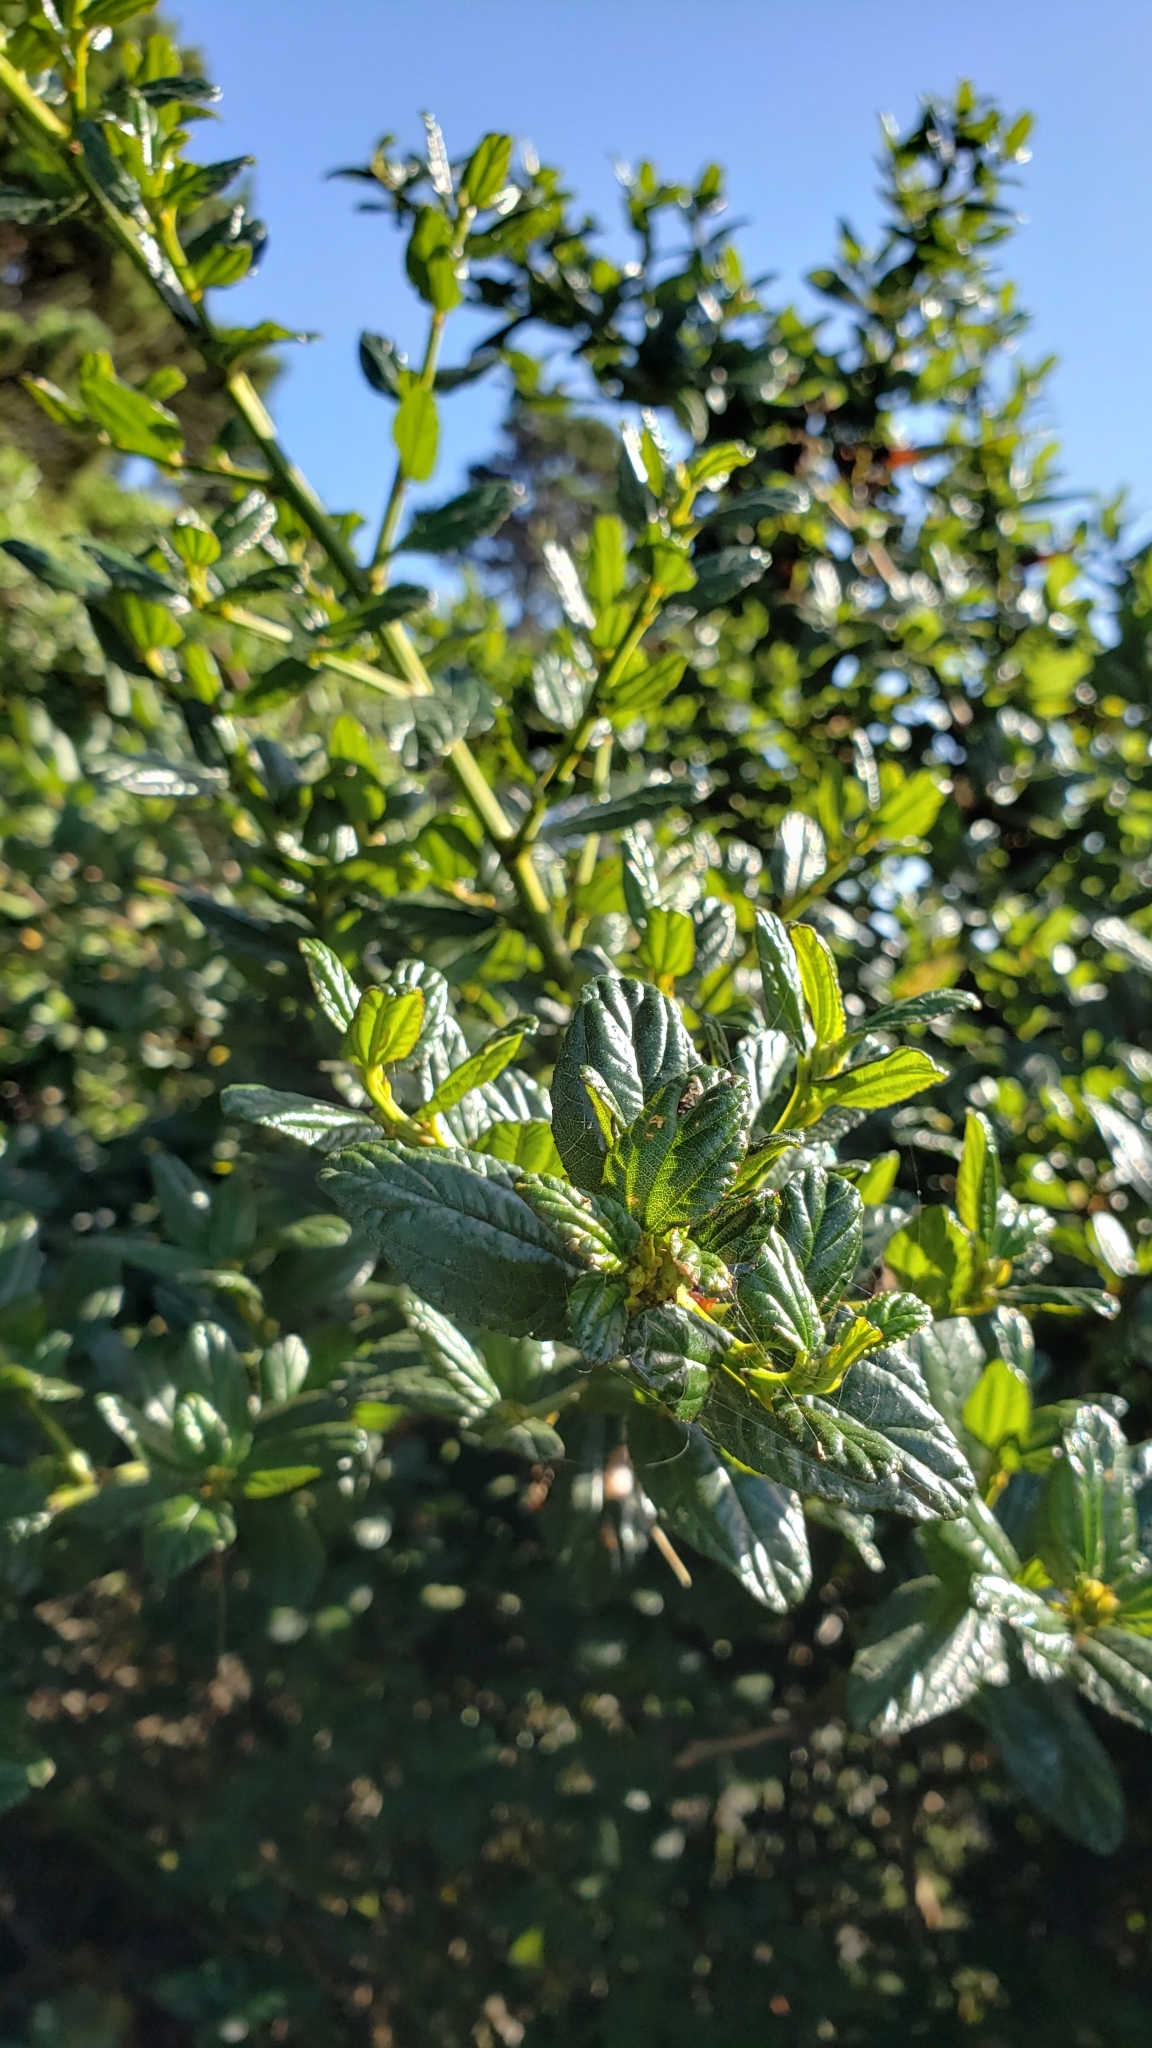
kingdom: Plantae
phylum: Tracheophyta
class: Magnoliopsida
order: Rosales
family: Rhamnaceae
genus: Ceanothus
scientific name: Ceanothus thyrsiflorus
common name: California-lilac
